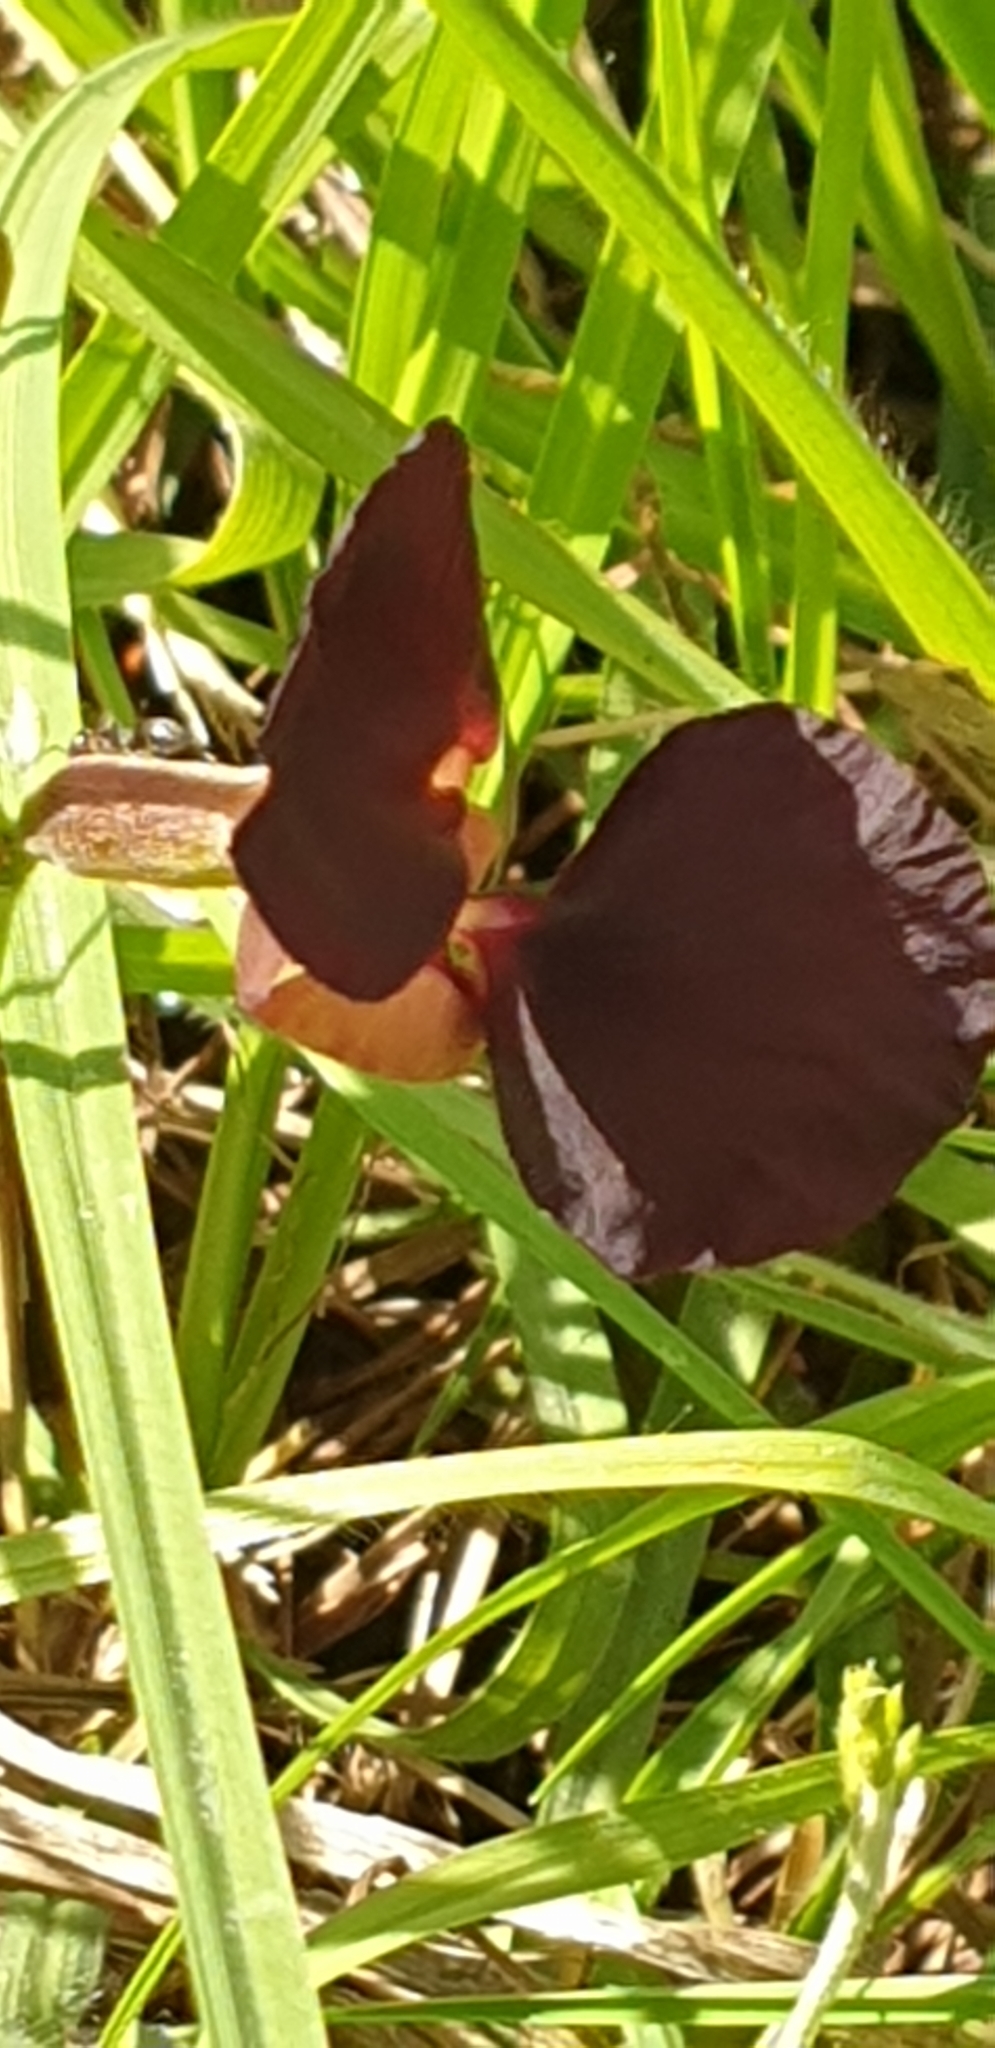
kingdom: Plantae
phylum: Tracheophyta
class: Magnoliopsida
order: Fabales
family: Fabaceae
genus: Macroptilium
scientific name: Macroptilium atropurpureum
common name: Purple bushbean
